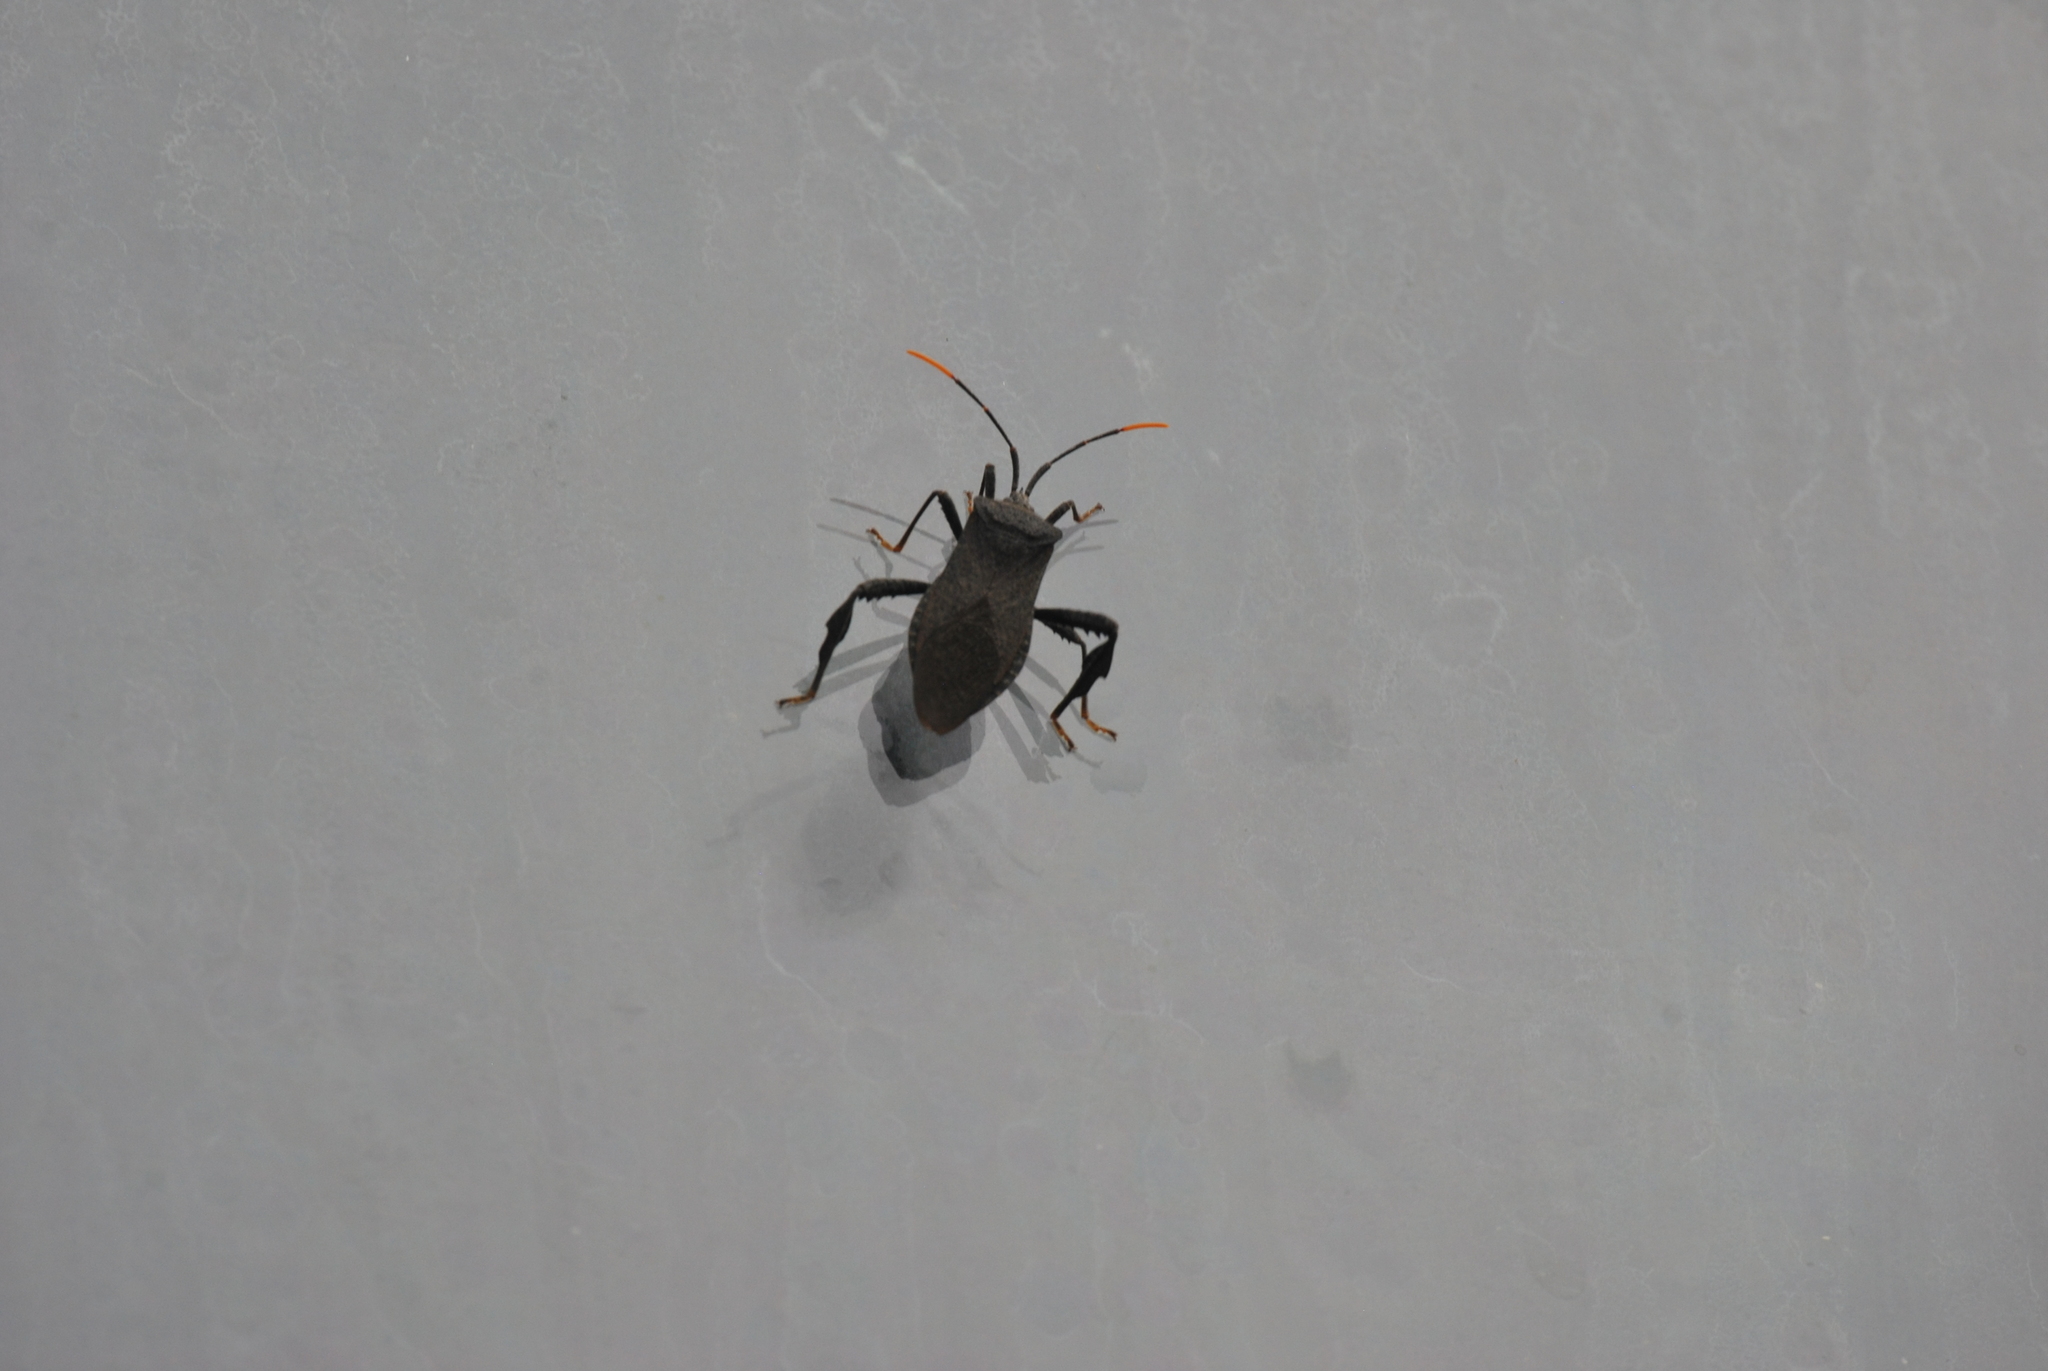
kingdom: Animalia
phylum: Arthropoda
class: Insecta
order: Hemiptera
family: Coreidae
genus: Acanthocephala
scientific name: Acanthocephala terminalis
